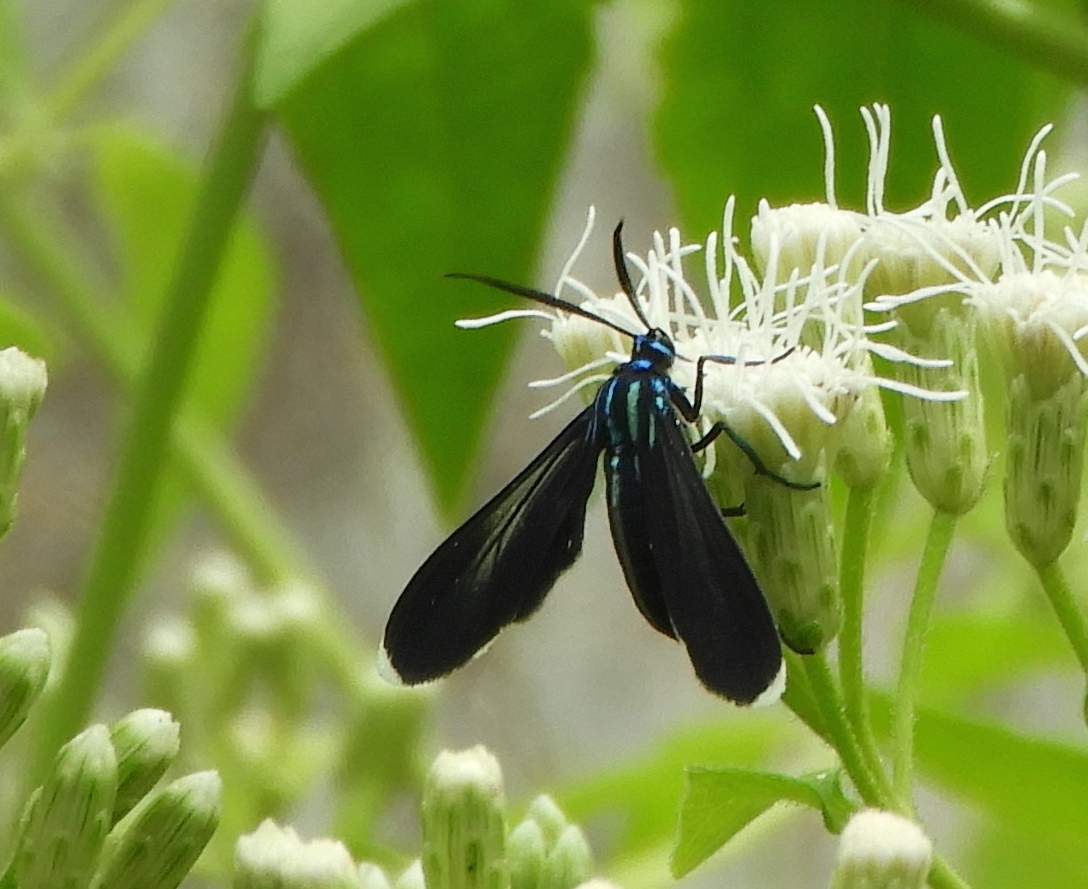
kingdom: Animalia
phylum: Arthropoda
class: Insecta
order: Lepidoptera
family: Erebidae
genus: Uranophora
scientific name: Uranophora leucotela
